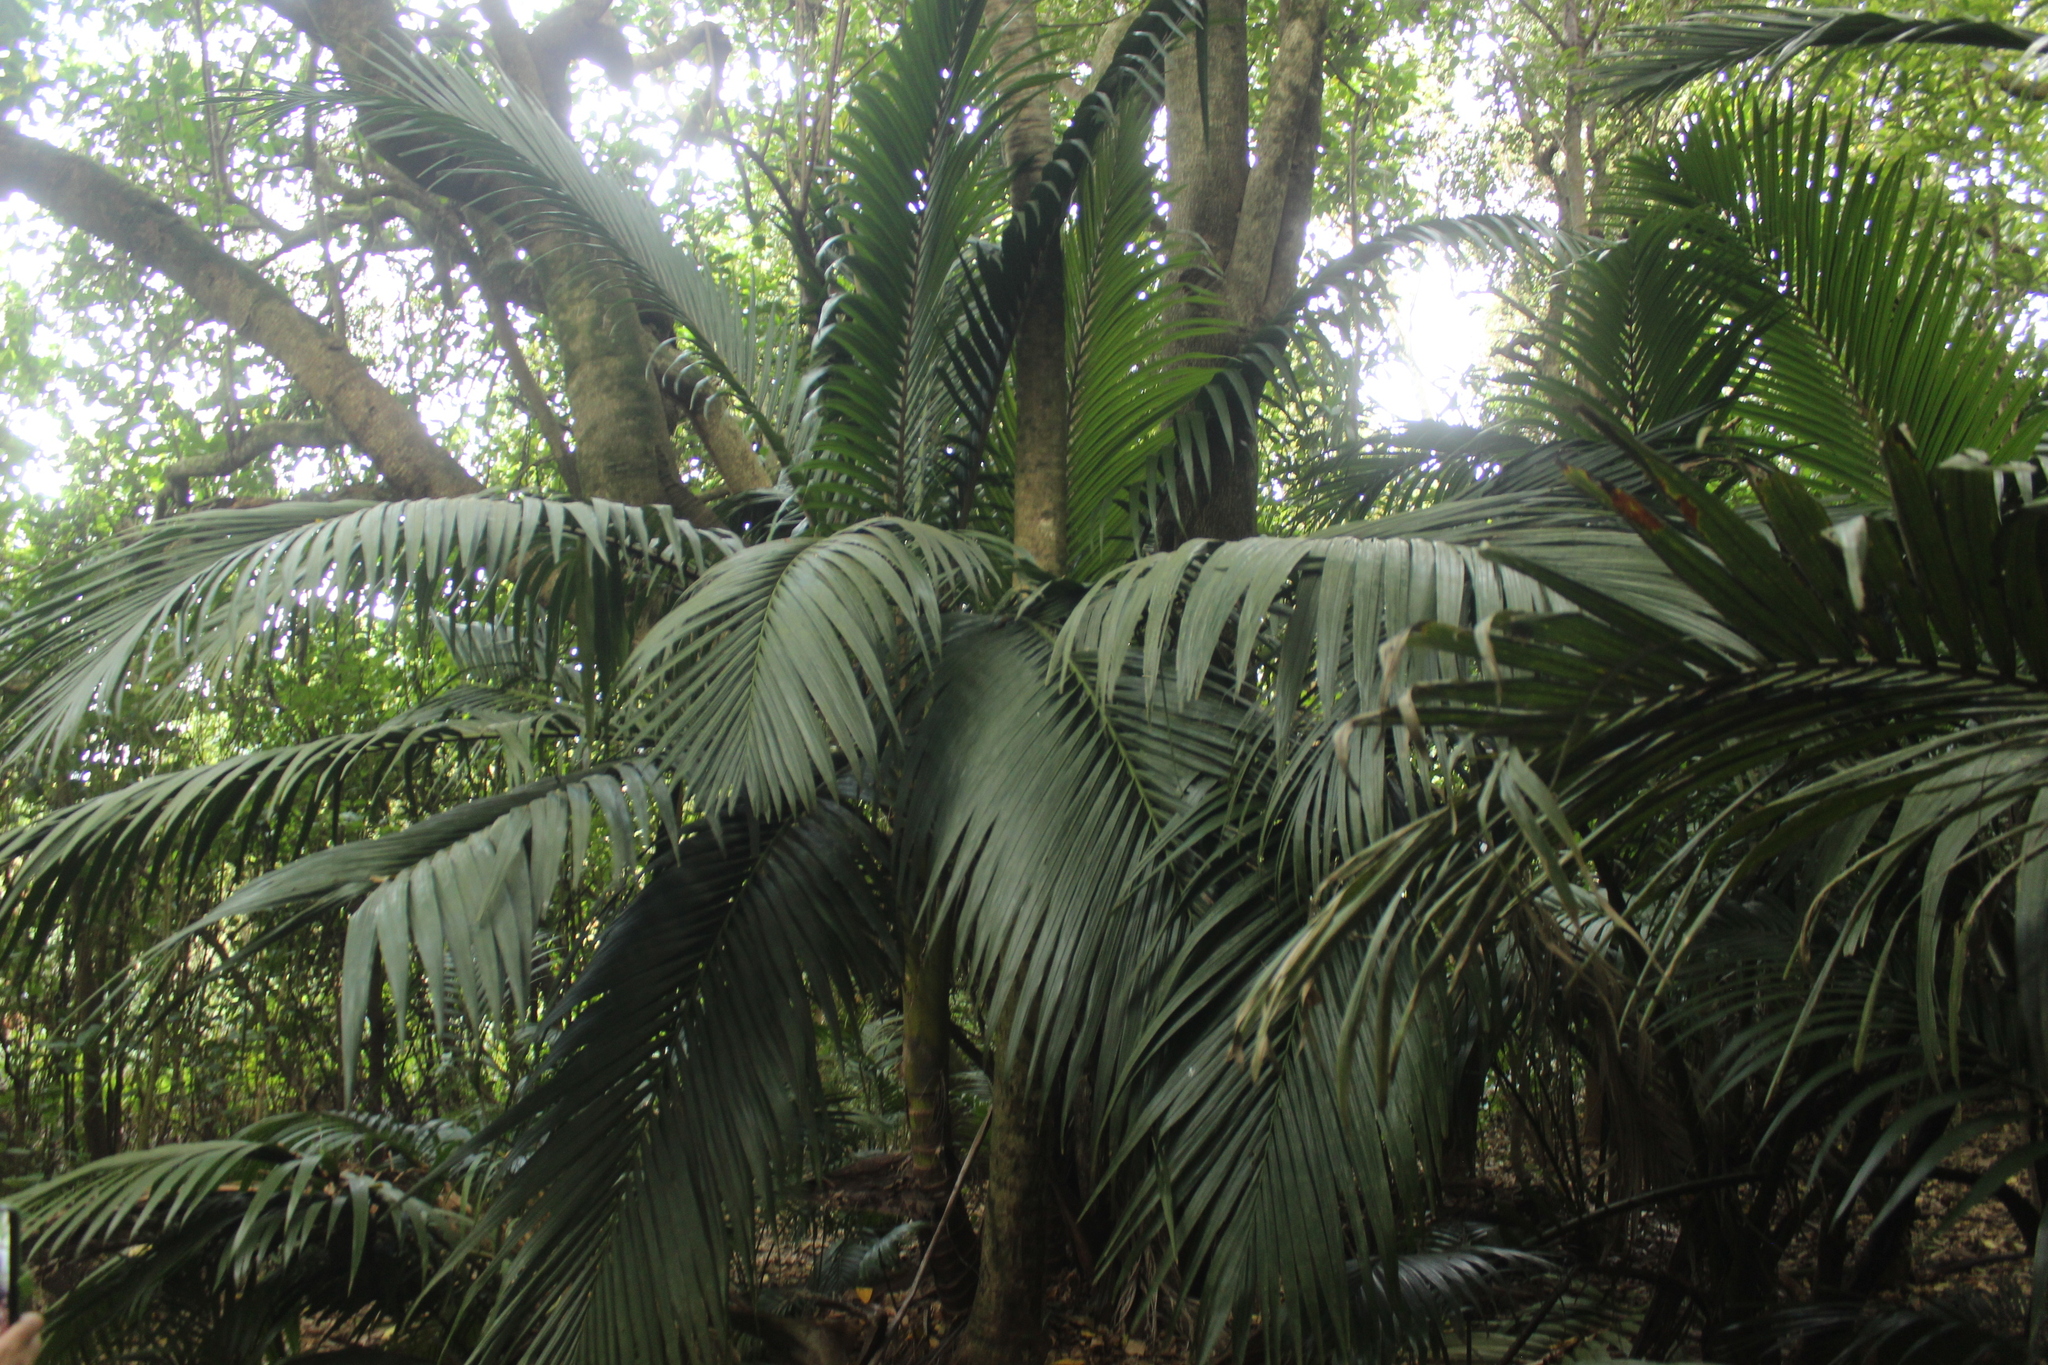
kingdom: Plantae
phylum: Tracheophyta
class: Liliopsida
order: Arecales
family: Arecaceae
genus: Rhopalostylis
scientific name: Rhopalostylis sapida
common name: Feather-duster palm
